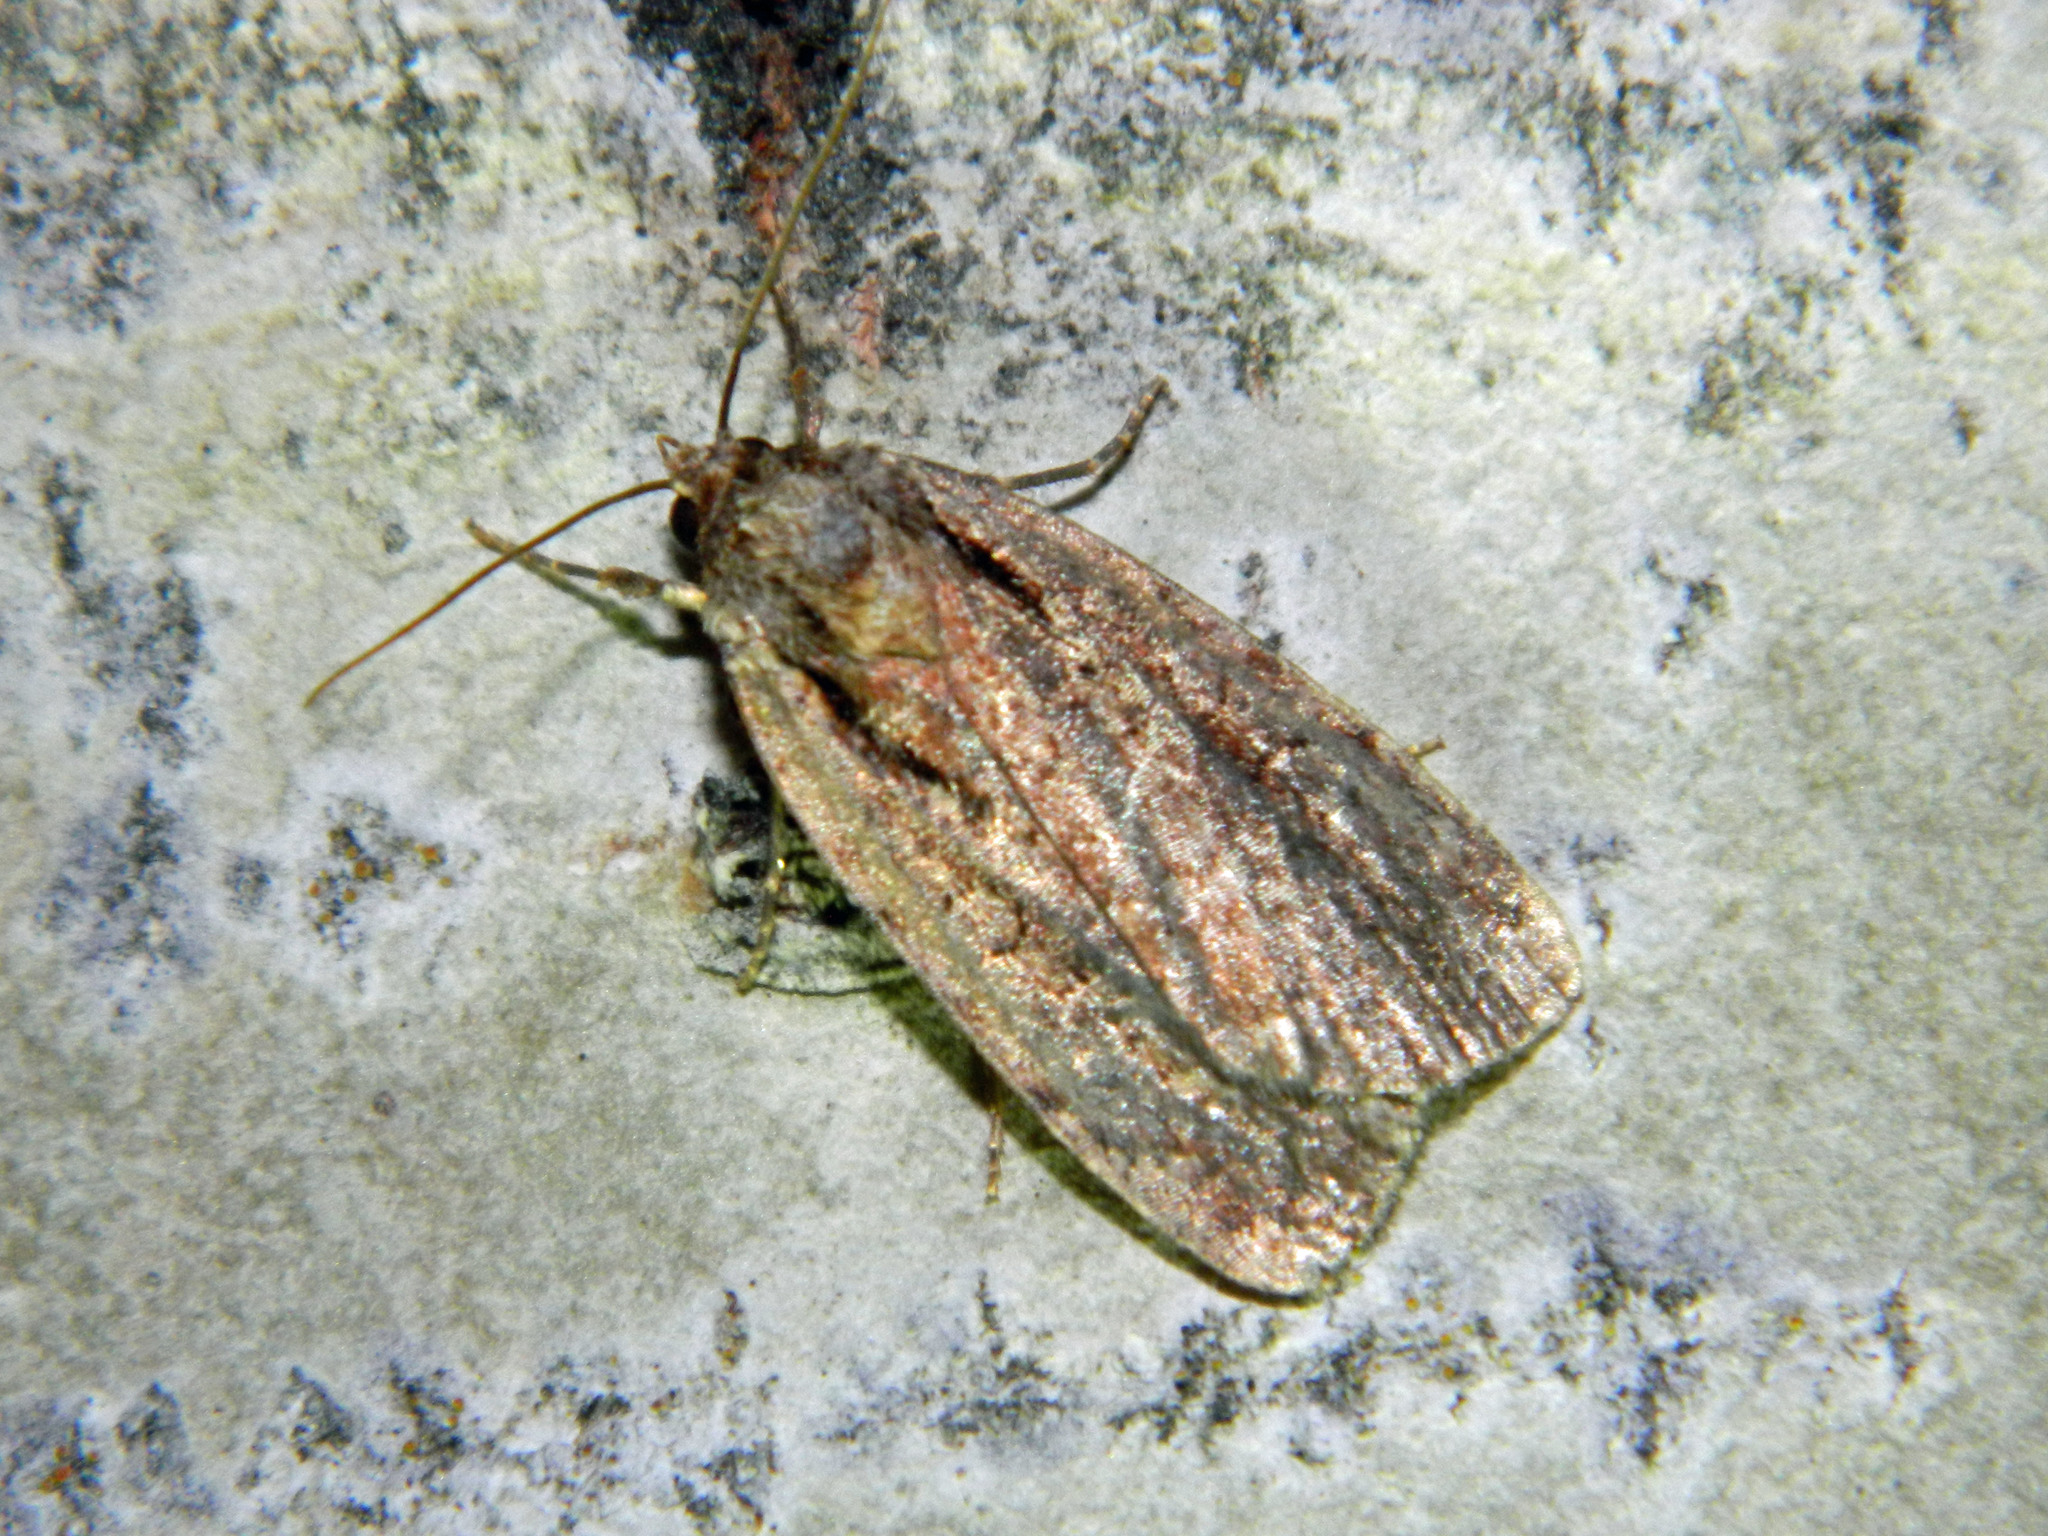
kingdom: Animalia
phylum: Arthropoda
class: Insecta
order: Lepidoptera
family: Noctuidae
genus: Eueretagrotis
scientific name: Eueretagrotis attentus
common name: Attentive dart
